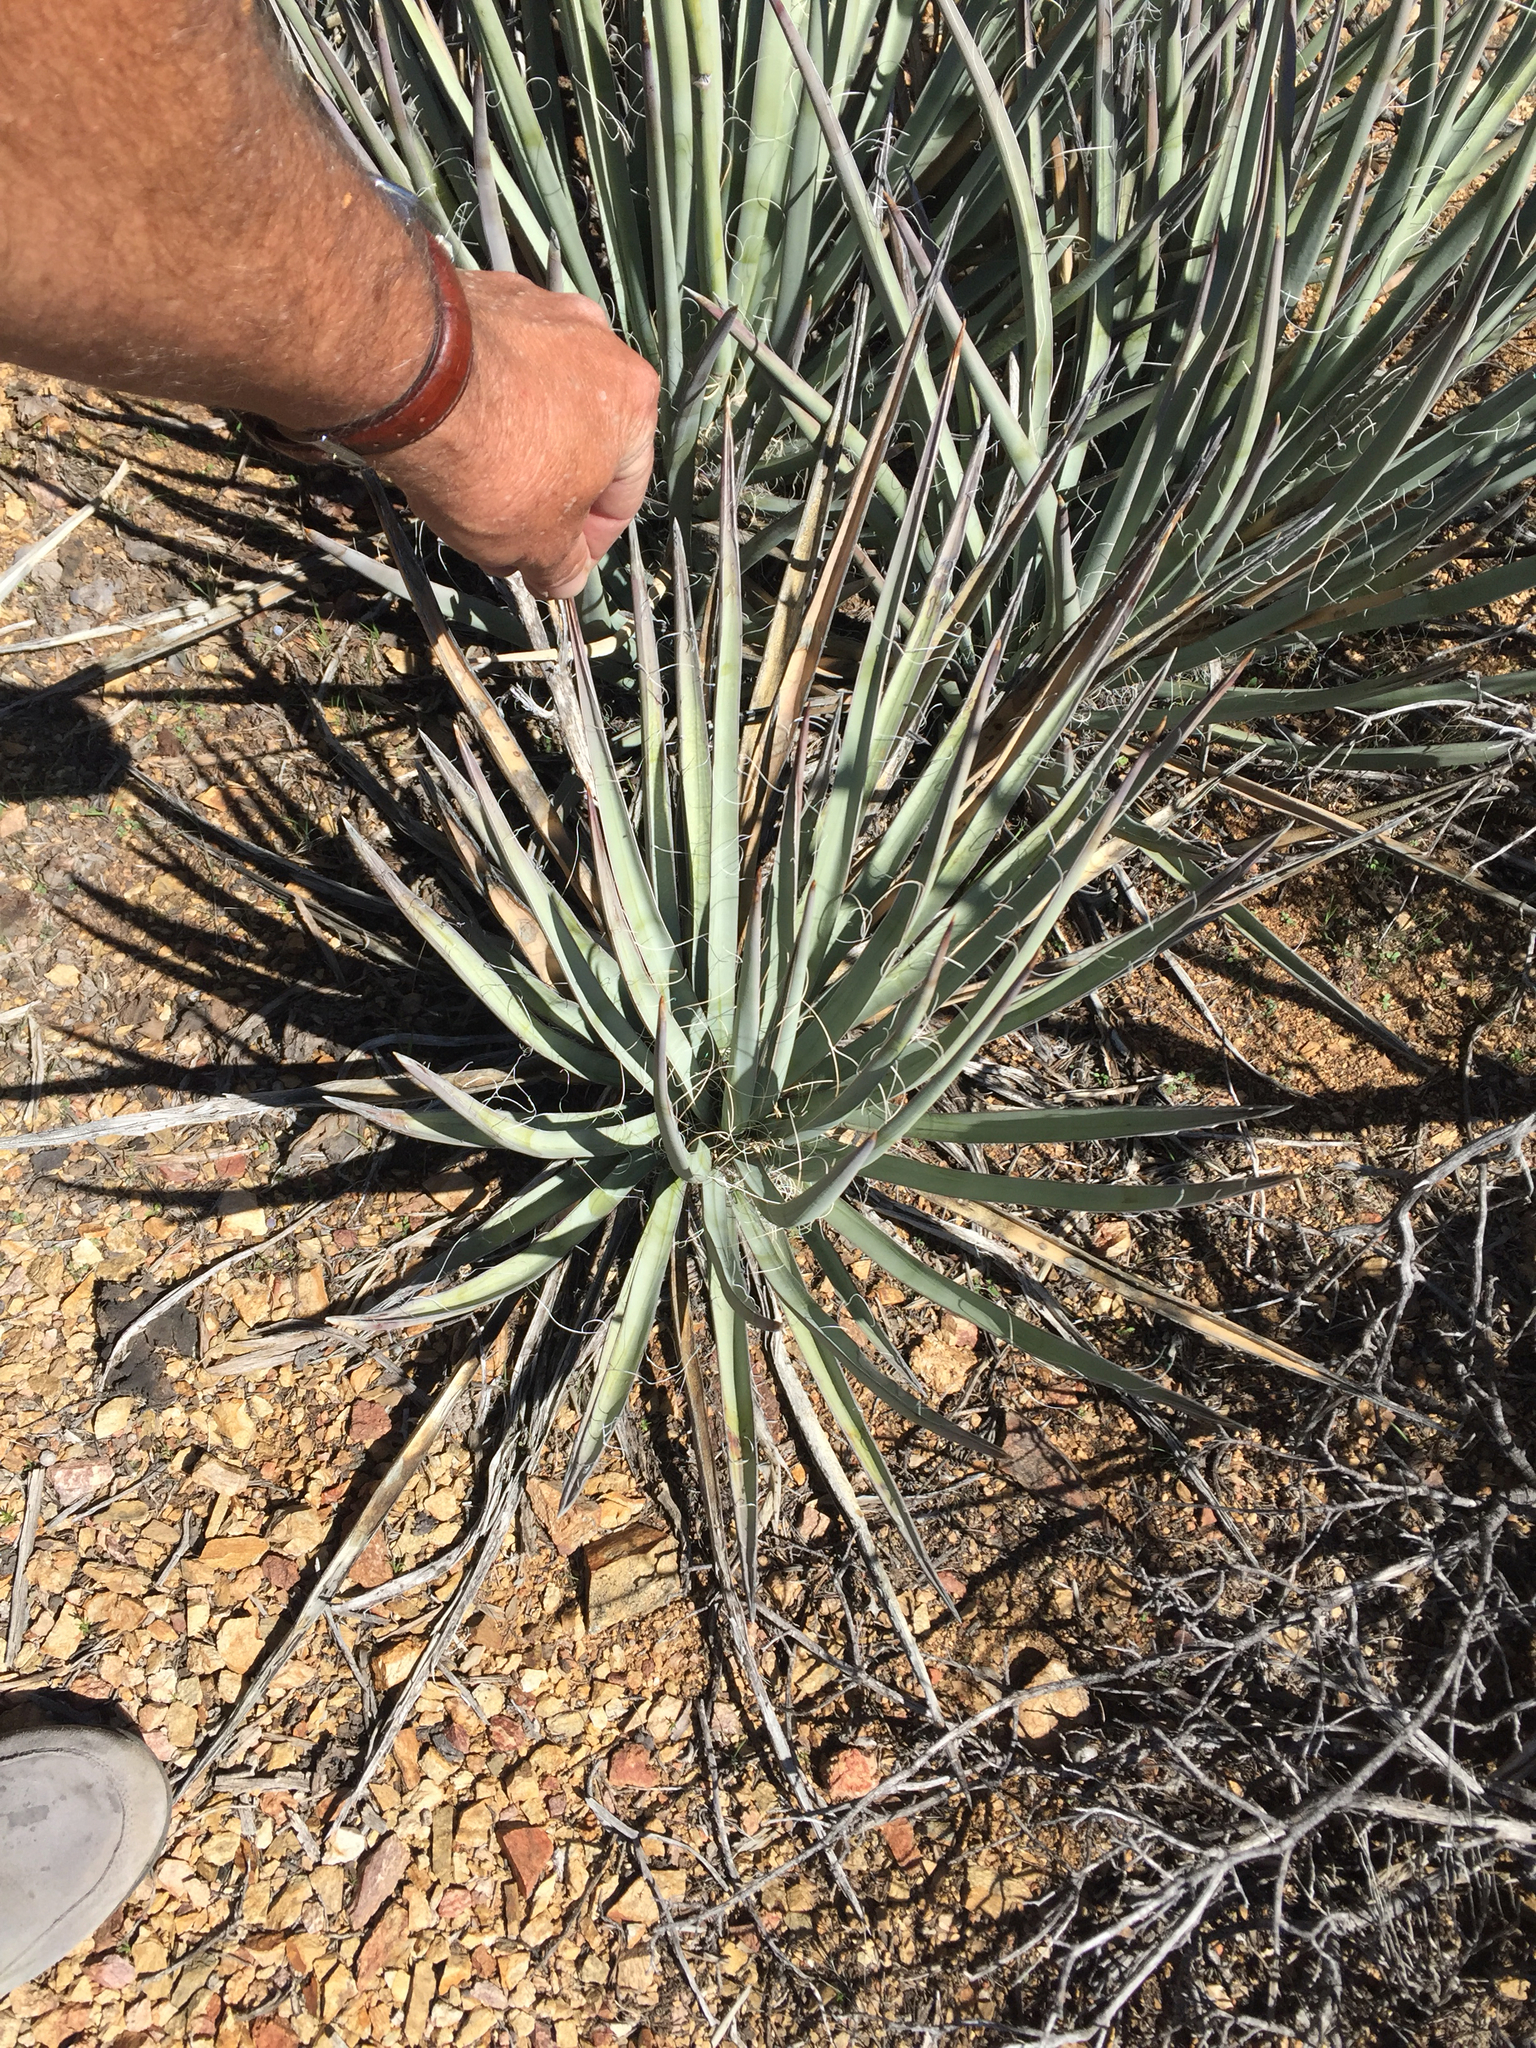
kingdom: Plantae
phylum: Tracheophyta
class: Liliopsida
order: Asparagales
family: Asparagaceae
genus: Yucca
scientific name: Yucca baccata
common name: Banana yucca
